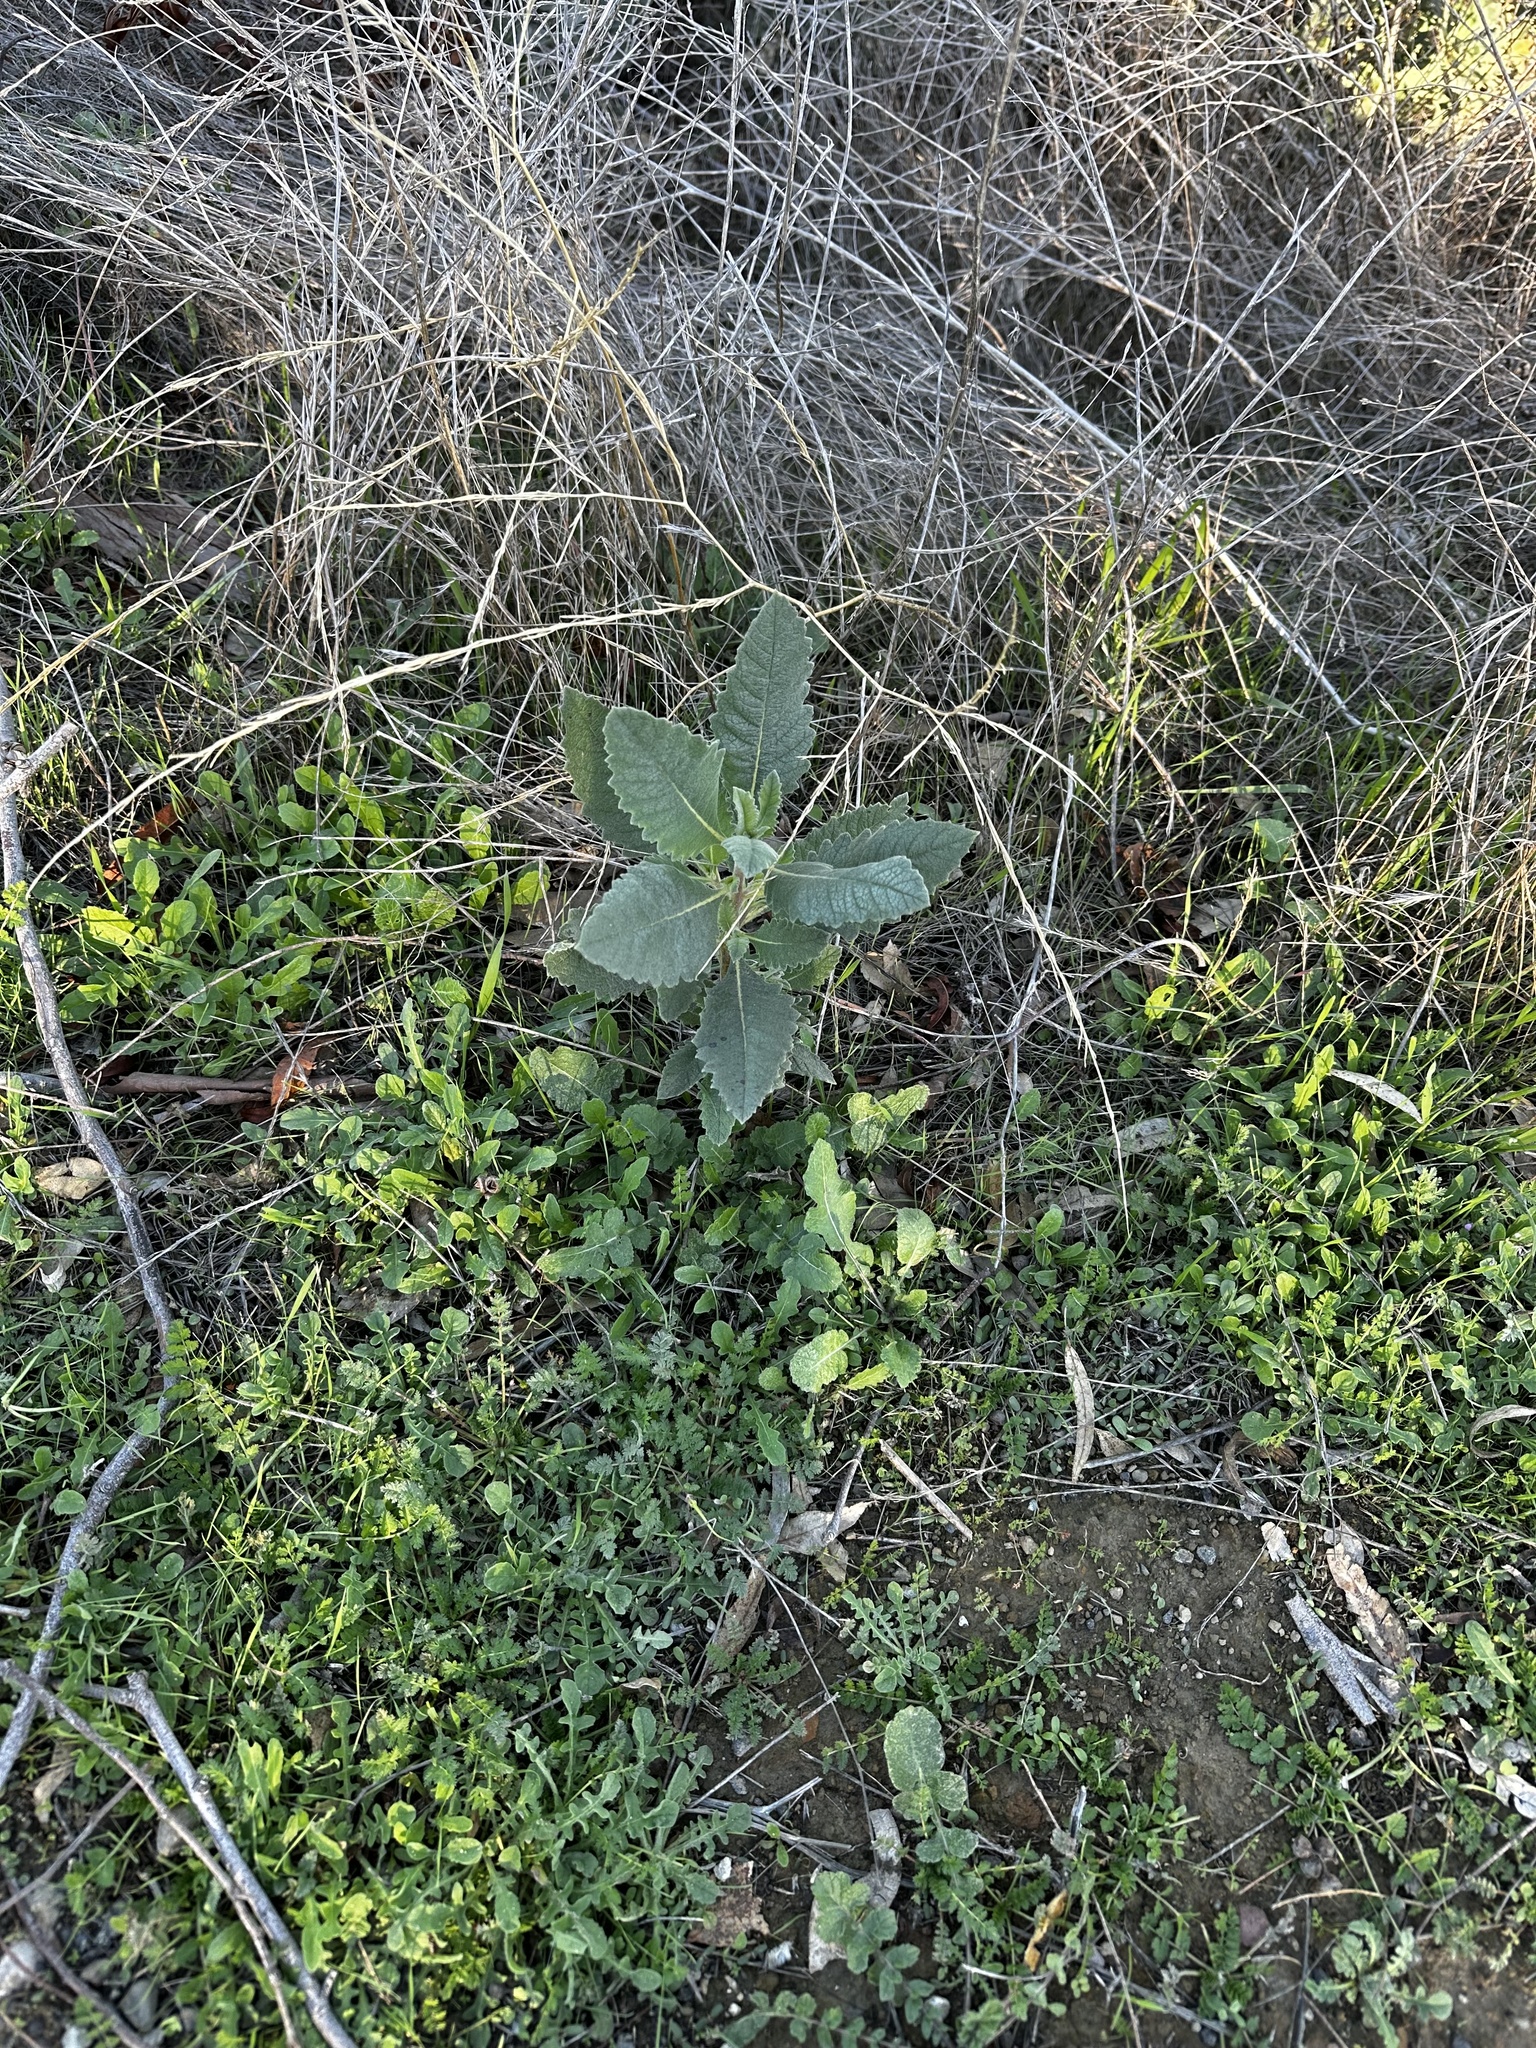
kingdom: Plantae
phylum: Tracheophyta
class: Magnoliopsida
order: Boraginales
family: Namaceae
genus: Eriodictyon
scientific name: Eriodictyon crassifolium
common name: Thick-leaf yerba-santa
